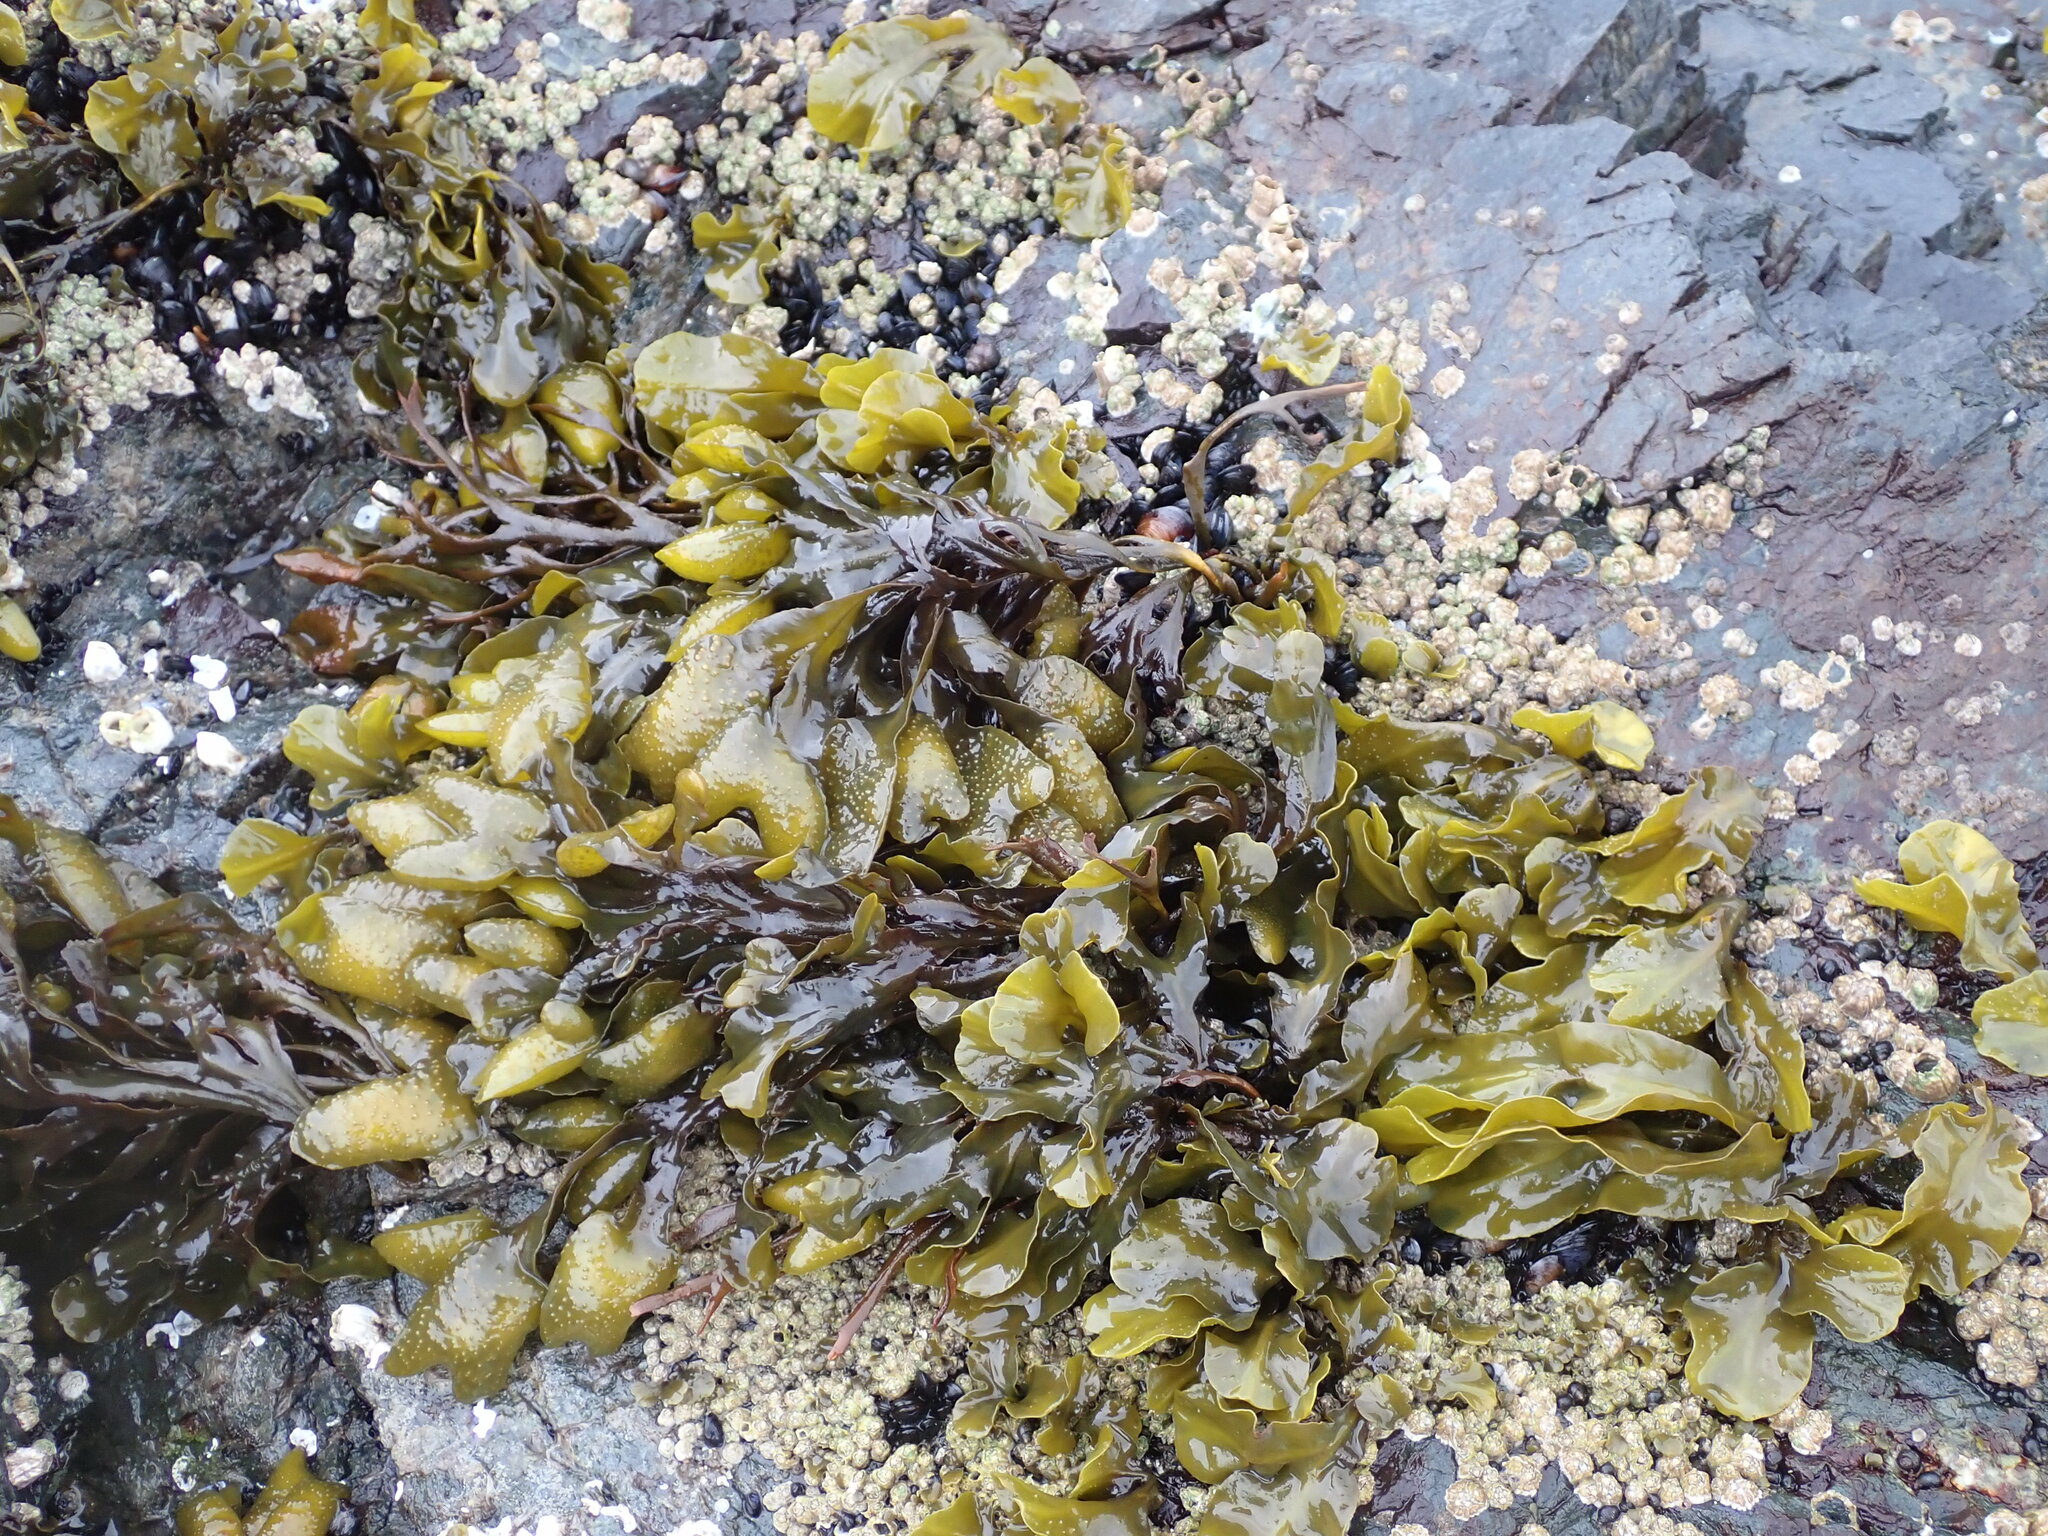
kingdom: Chromista
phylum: Ochrophyta
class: Phaeophyceae
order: Fucales
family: Fucaceae
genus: Fucus
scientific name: Fucus distichus
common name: Rockweed
